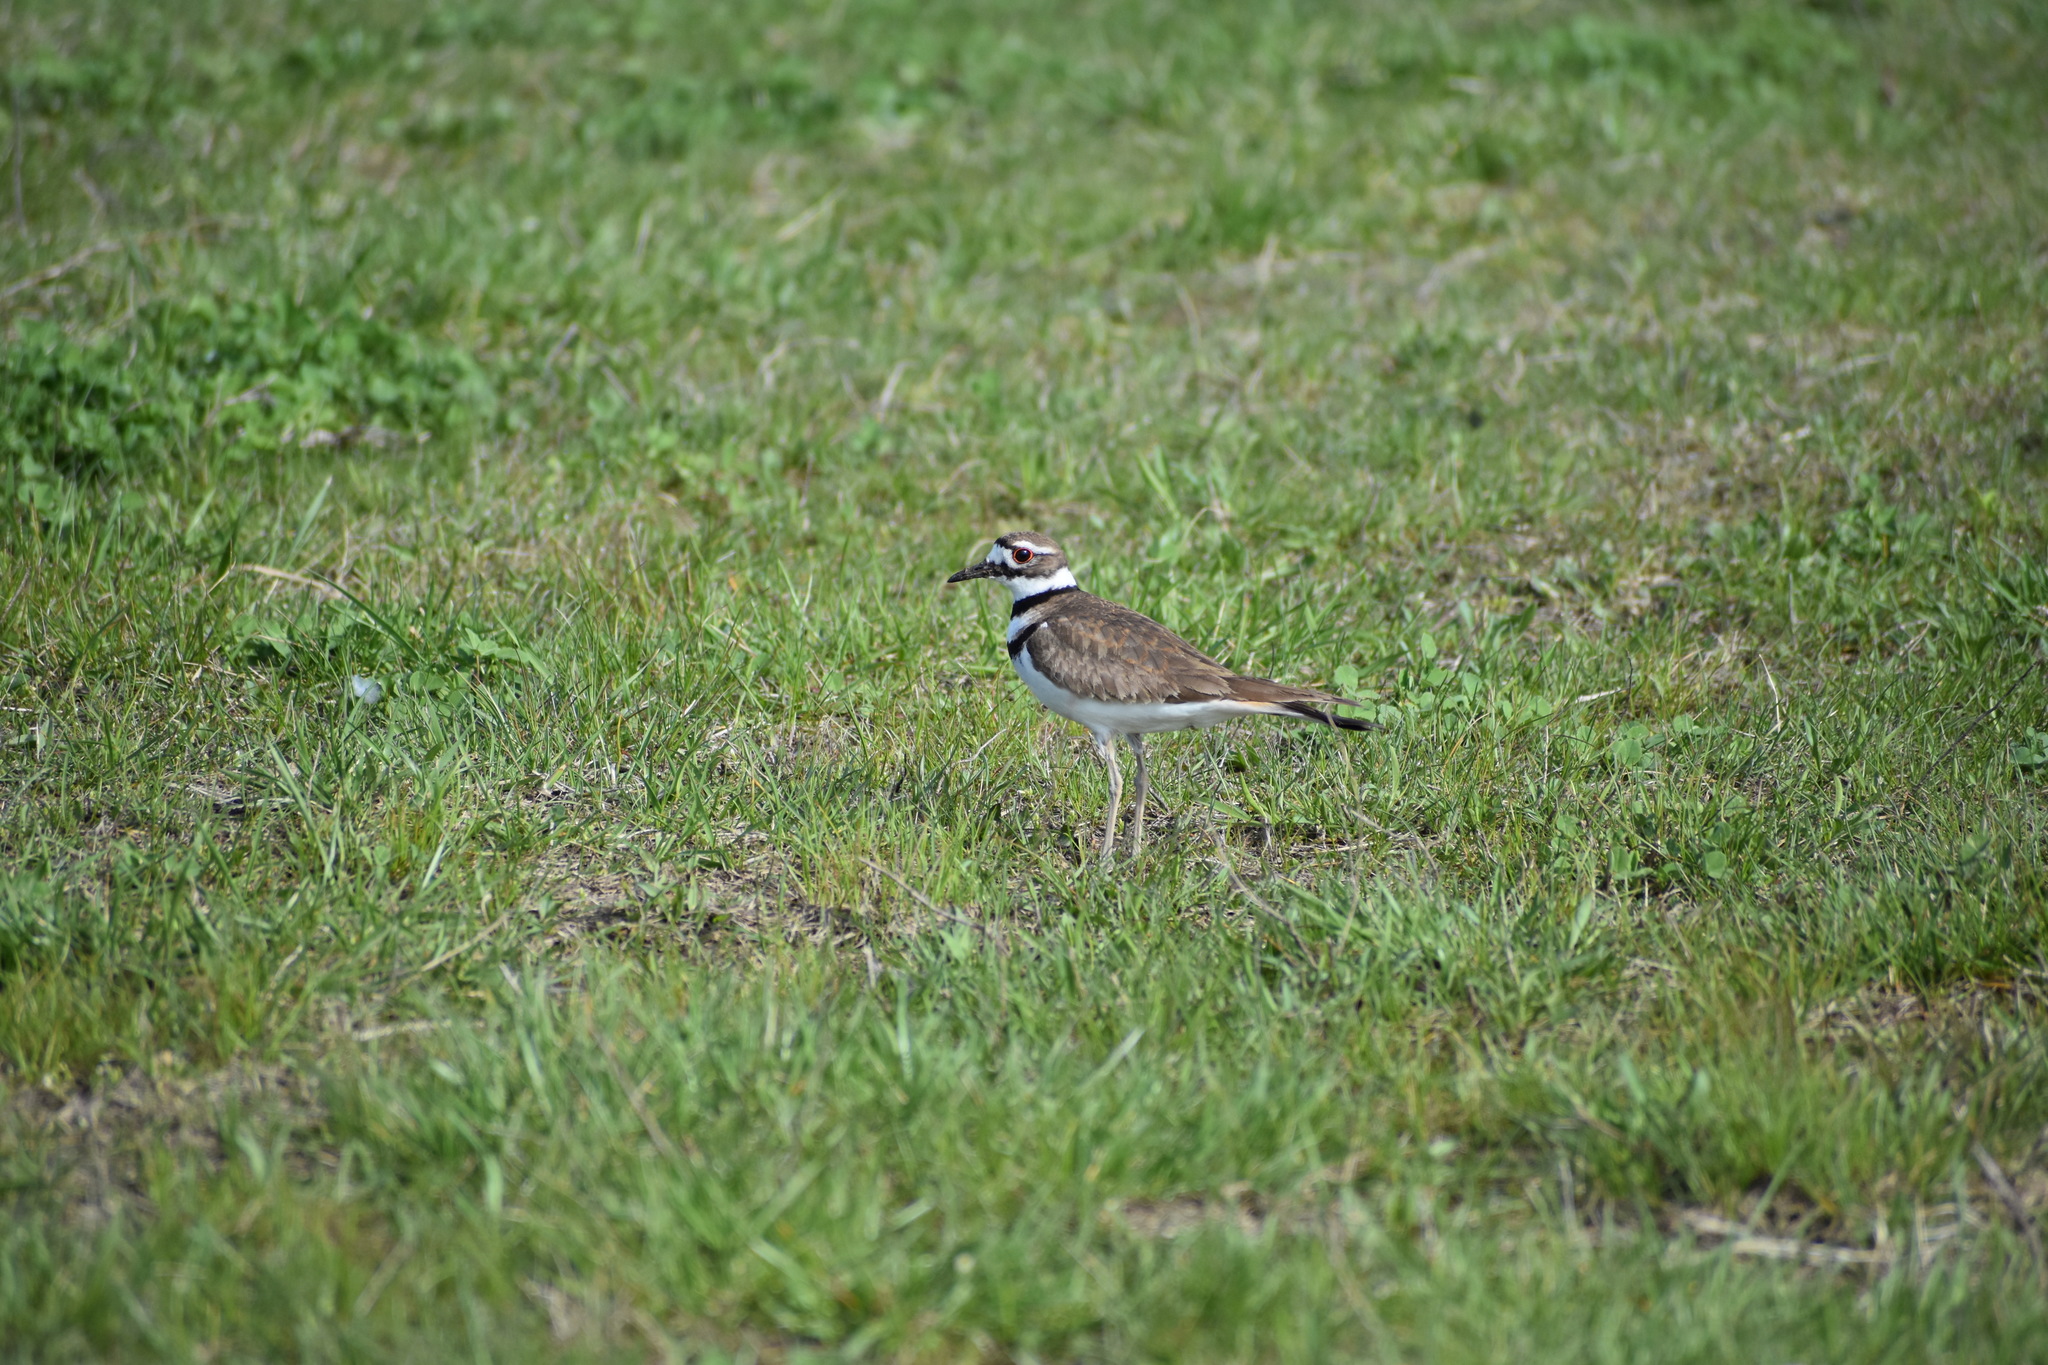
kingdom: Animalia
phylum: Chordata
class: Aves
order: Charadriiformes
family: Charadriidae
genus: Charadrius
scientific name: Charadrius vociferus
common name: Killdeer
